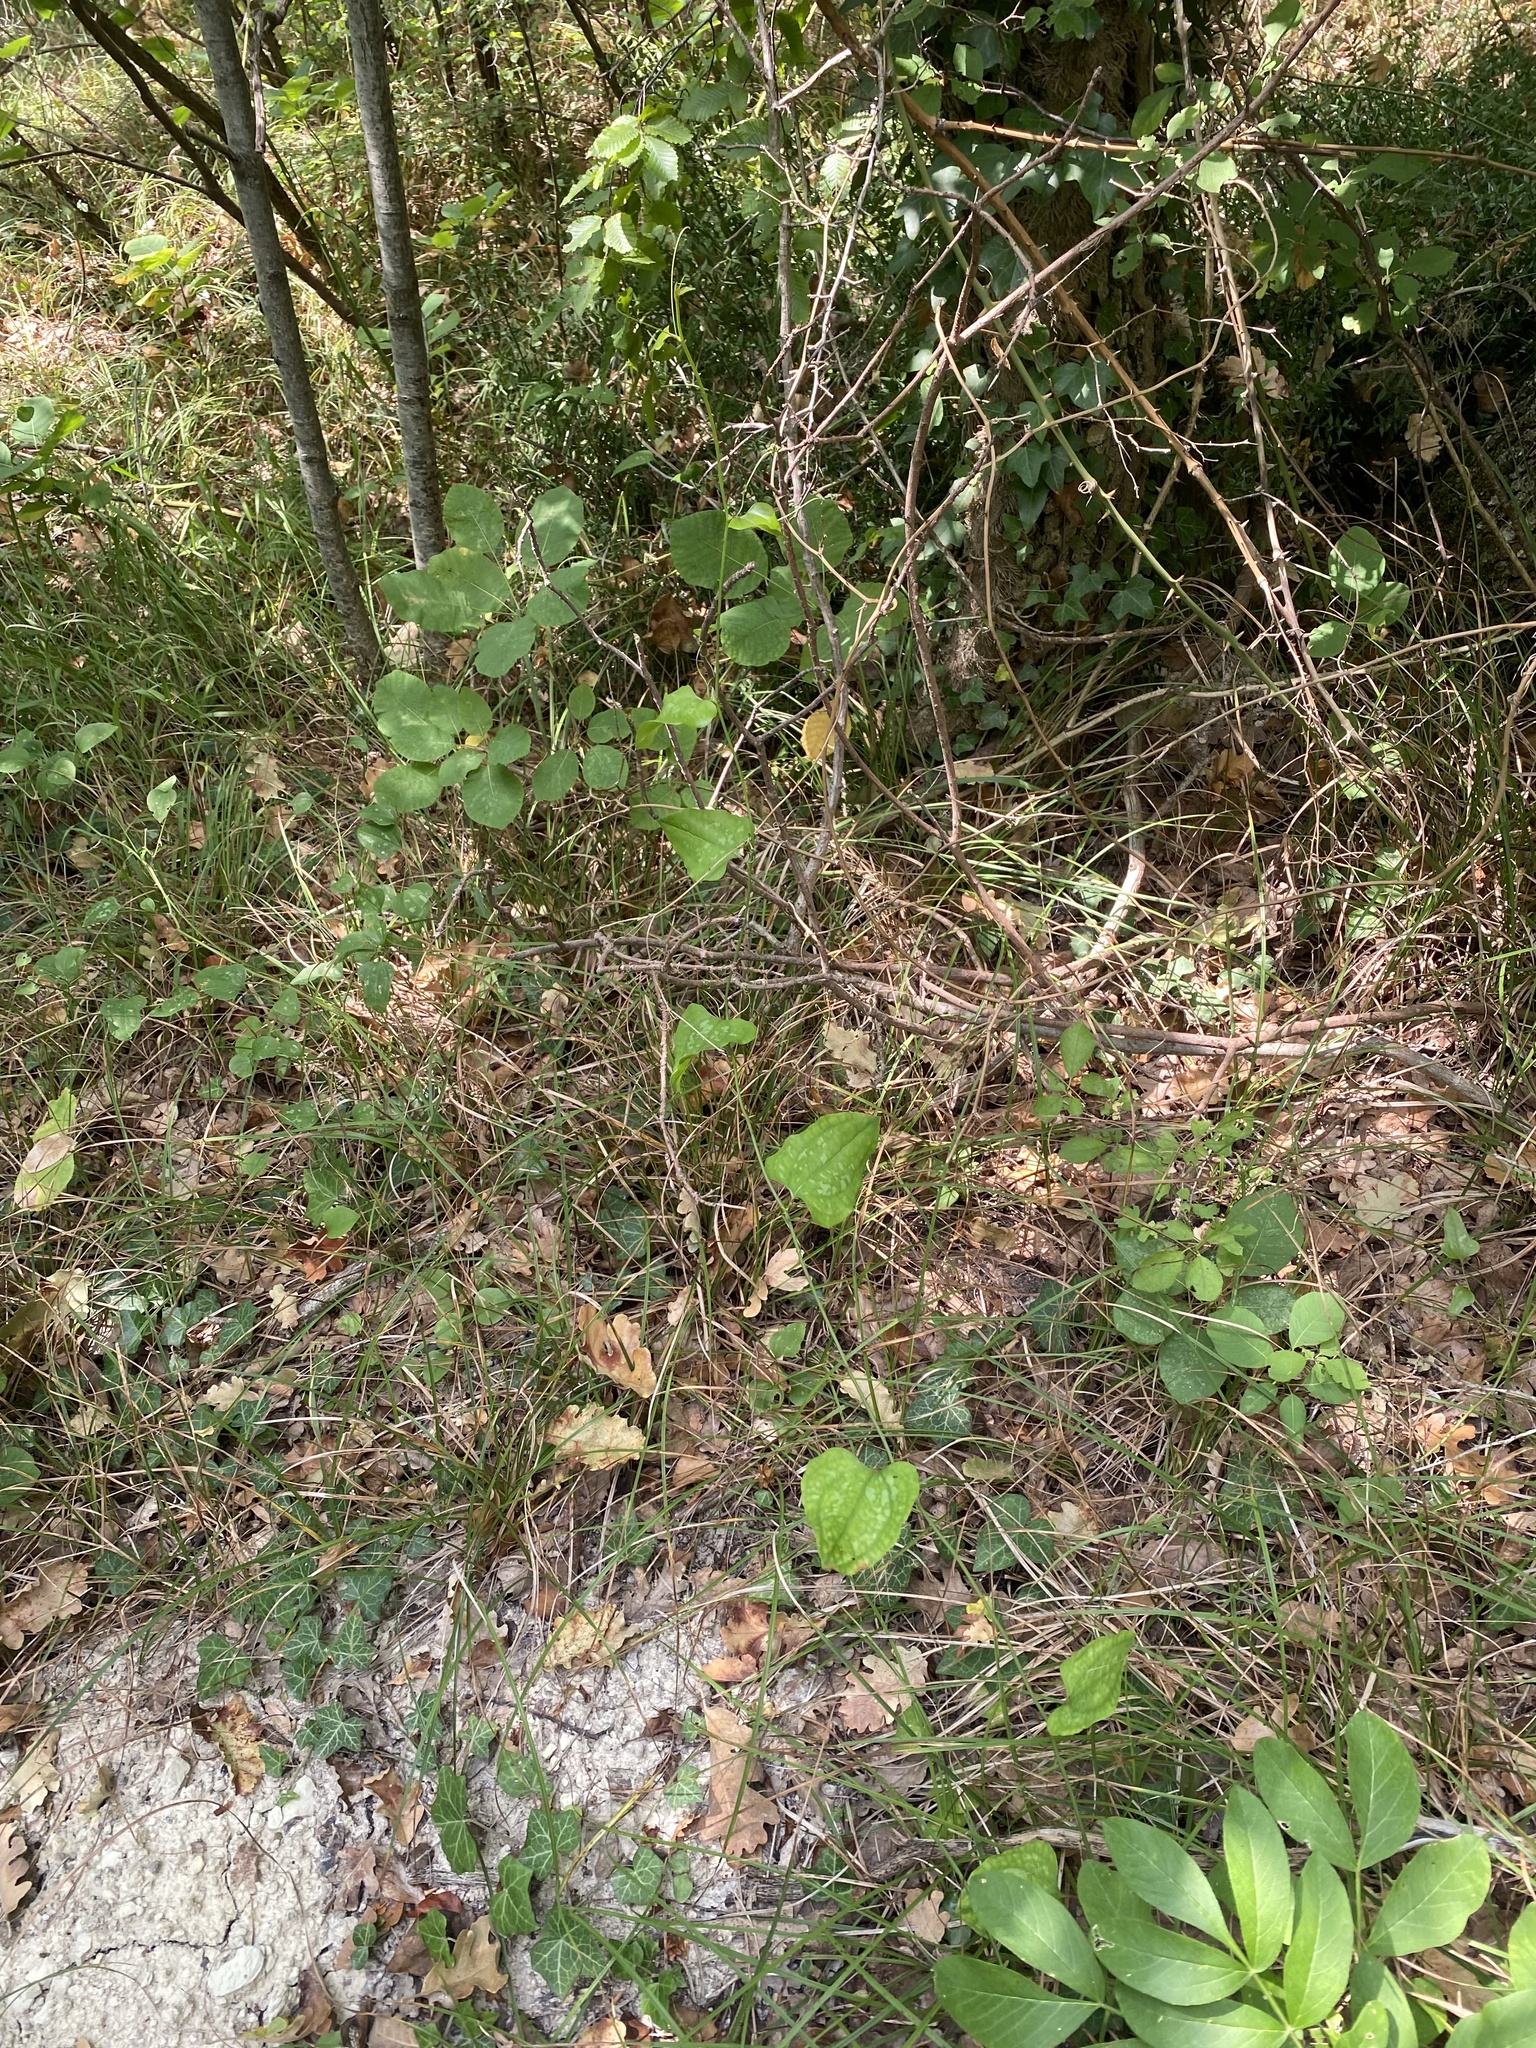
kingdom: Plantae
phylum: Tracheophyta
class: Liliopsida
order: Liliales
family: Smilacaceae
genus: Smilax
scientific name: Smilax excelsa
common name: Larger smilax
